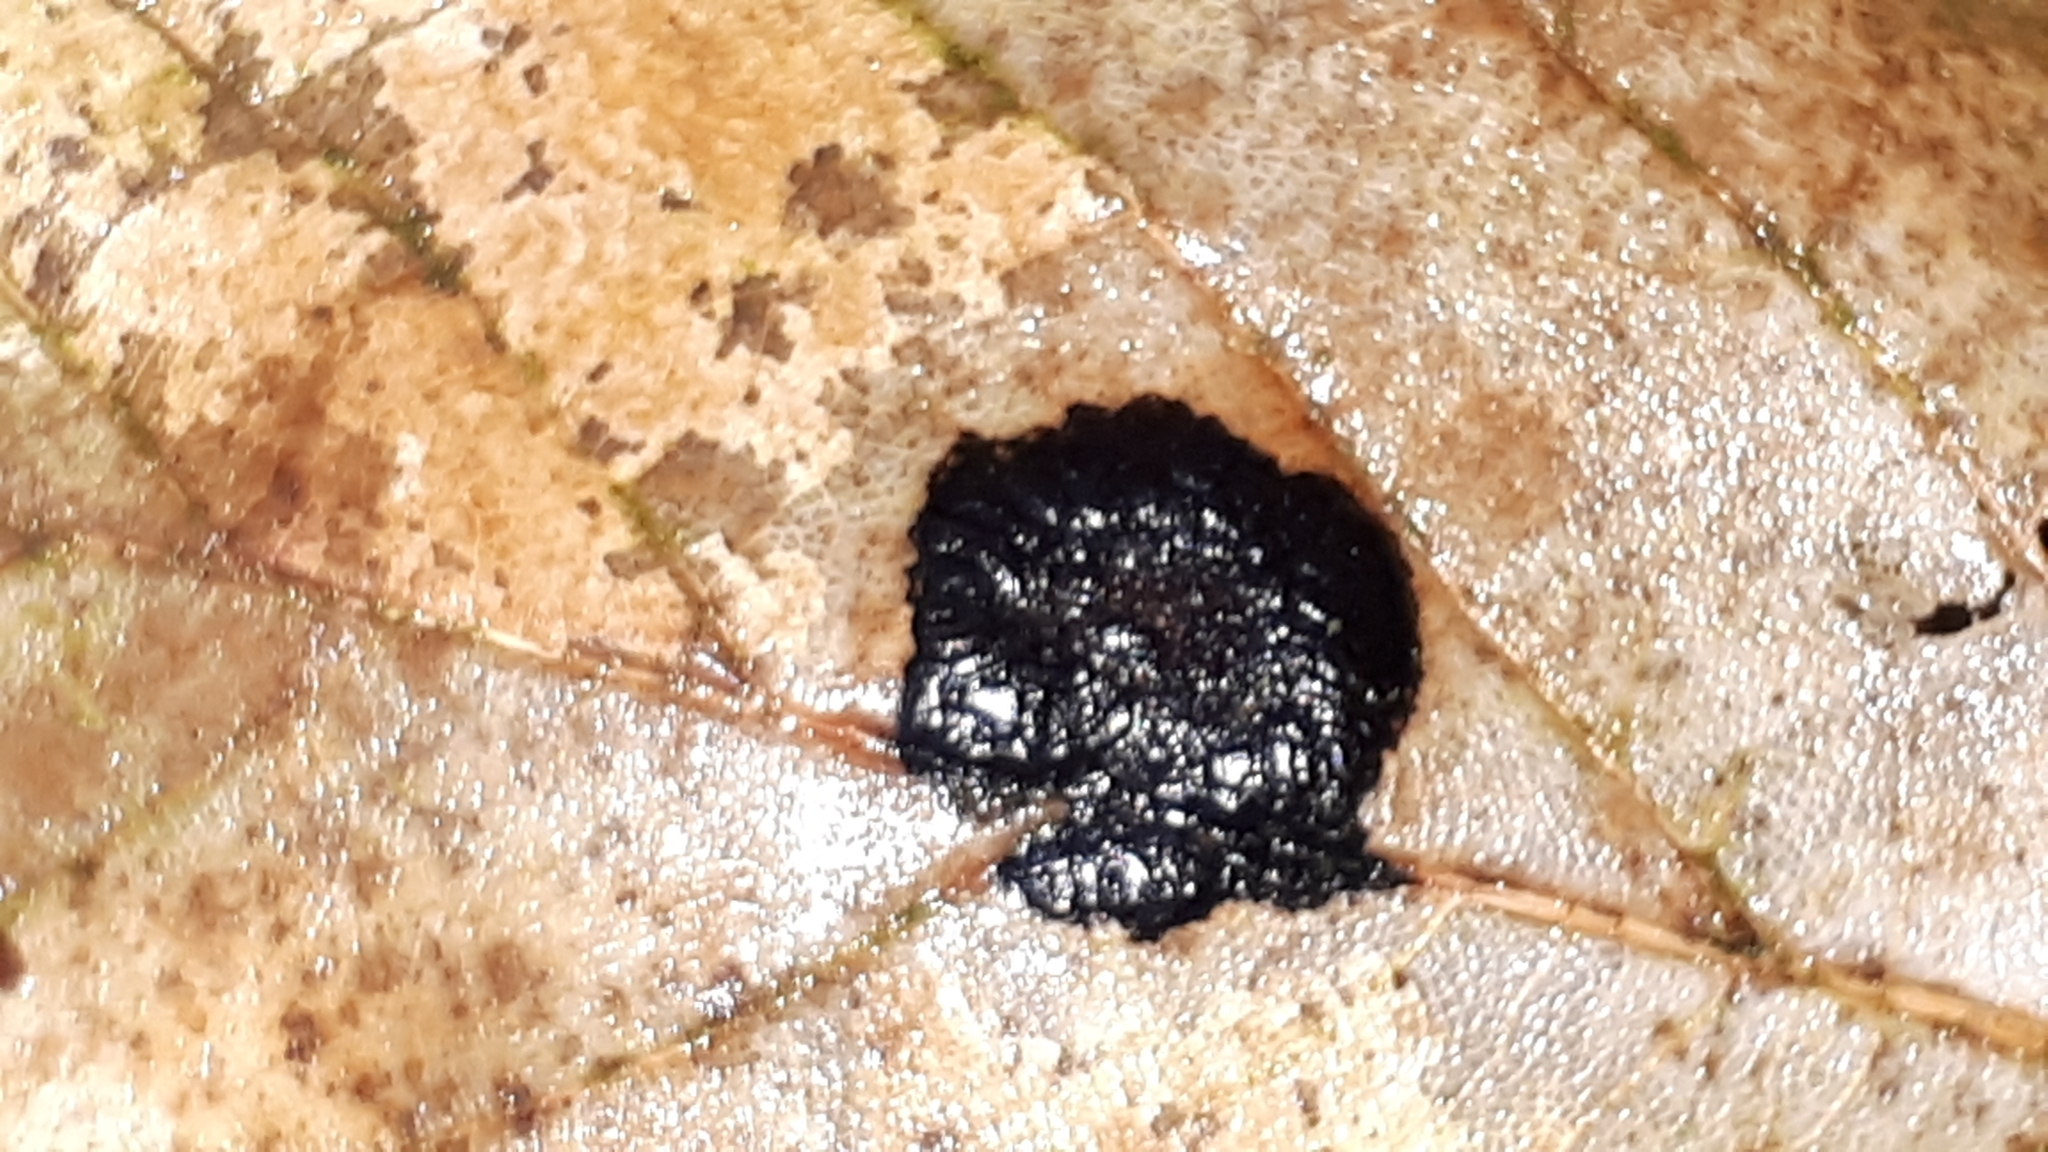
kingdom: Fungi
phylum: Ascomycota
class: Leotiomycetes
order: Rhytismatales
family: Rhytismataceae
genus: Rhytisma
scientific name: Rhytisma acerinum
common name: European tar spot
